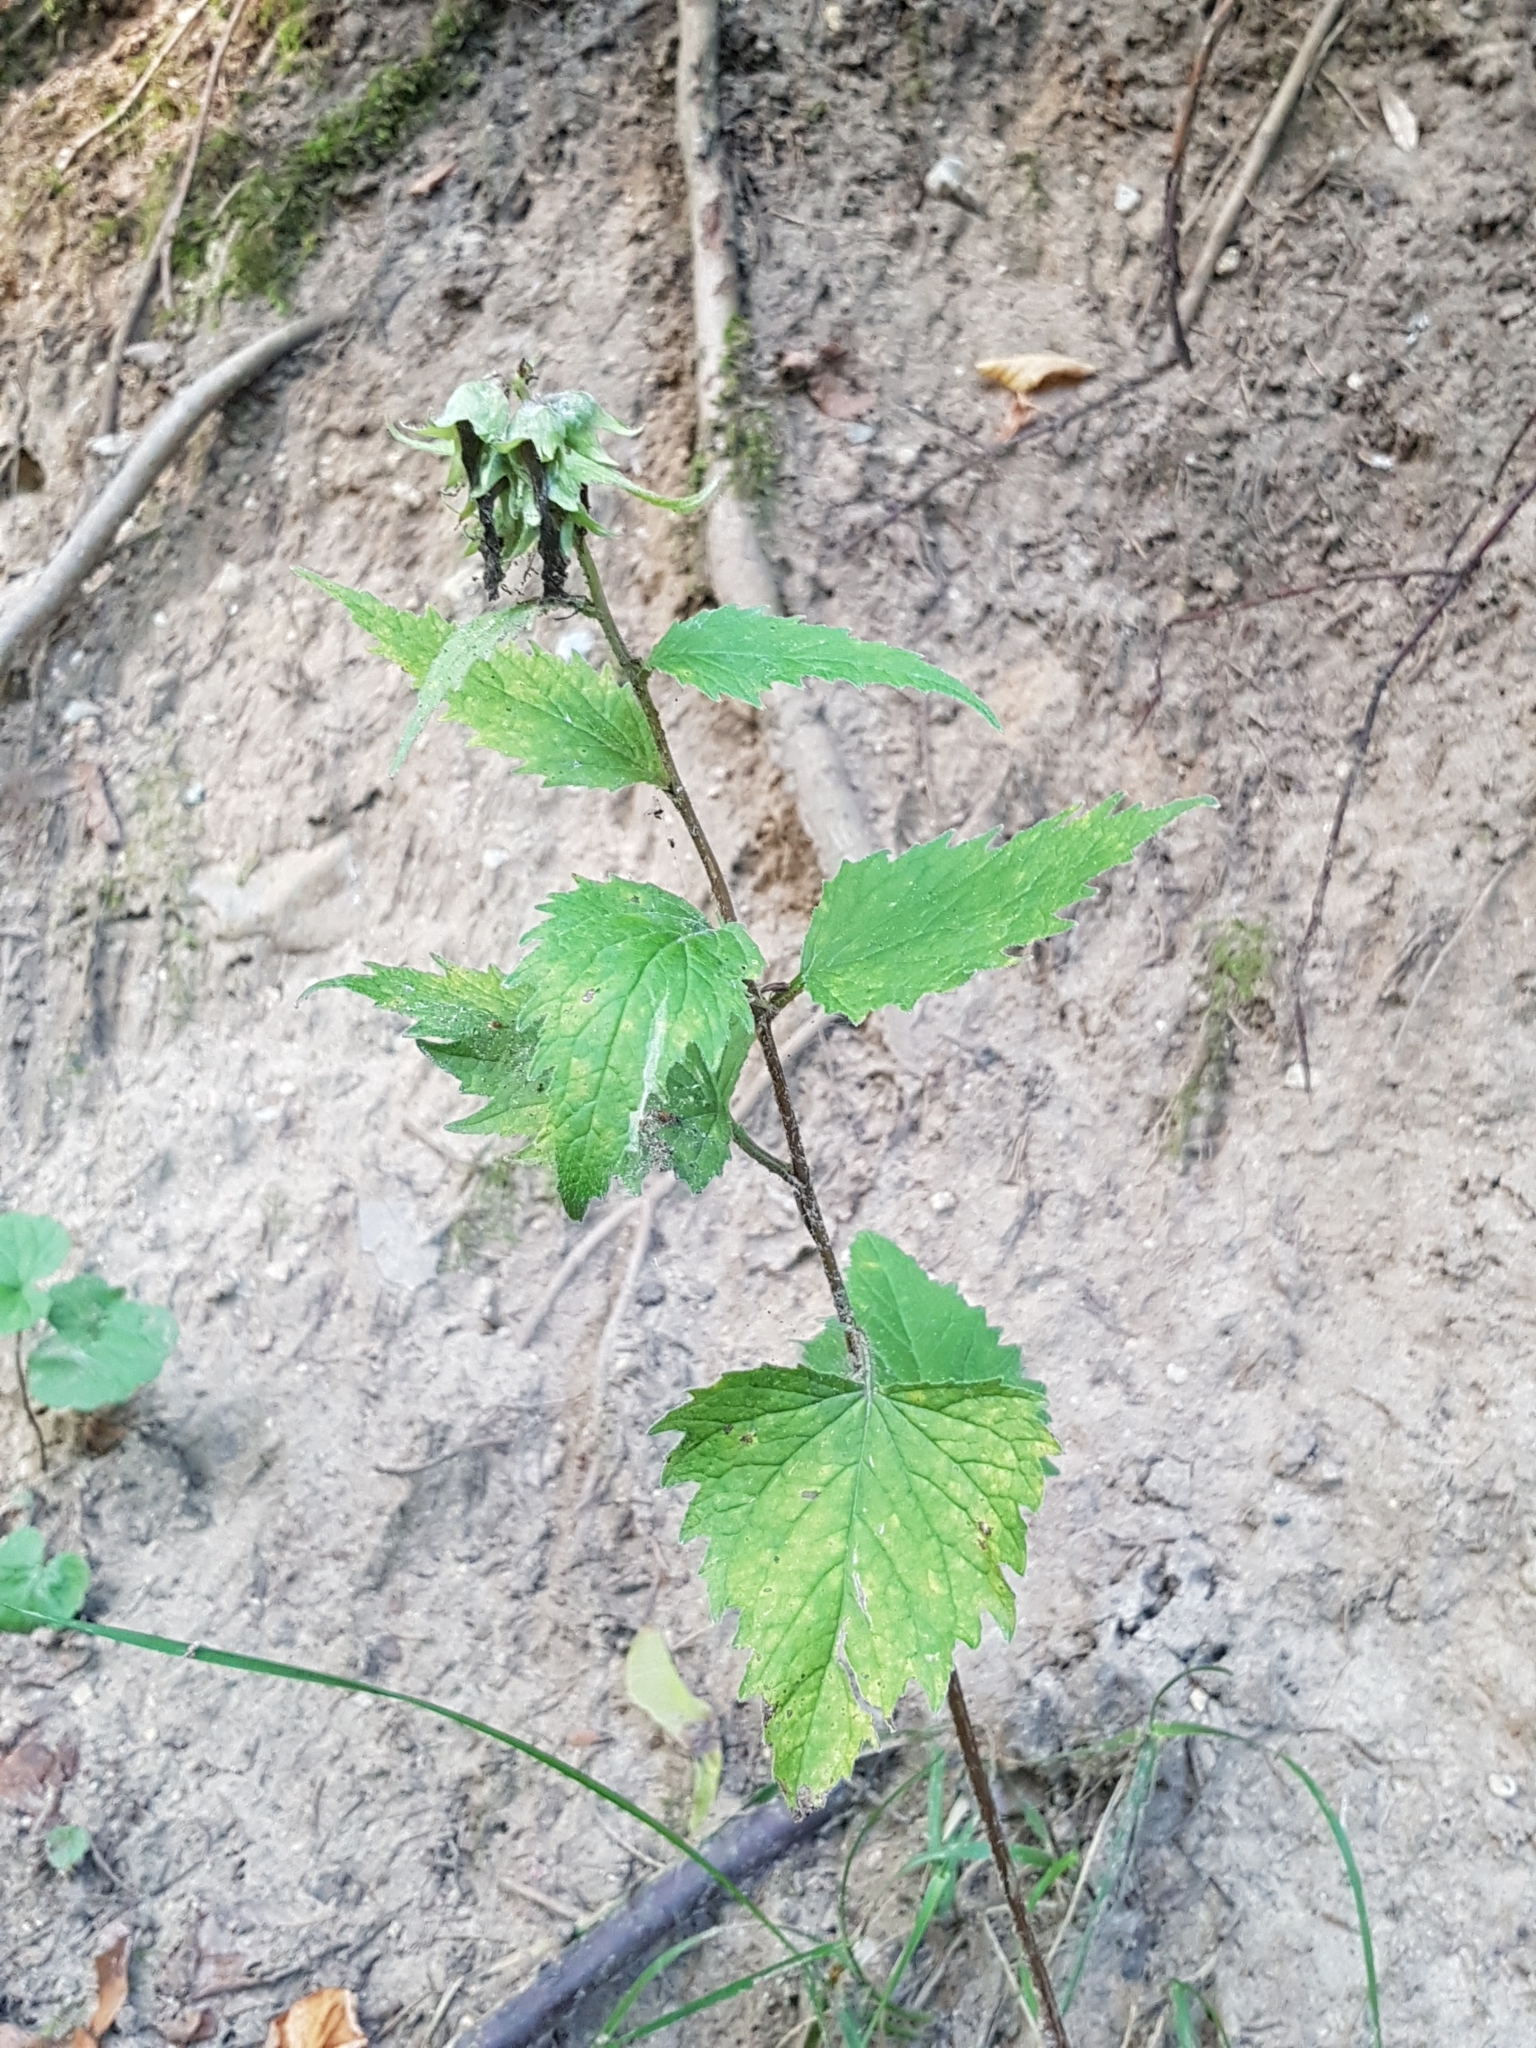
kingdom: Plantae
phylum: Tracheophyta
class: Magnoliopsida
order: Asterales
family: Campanulaceae
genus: Campanula
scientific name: Campanula trachelium
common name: Nettle-leaved bellflower
